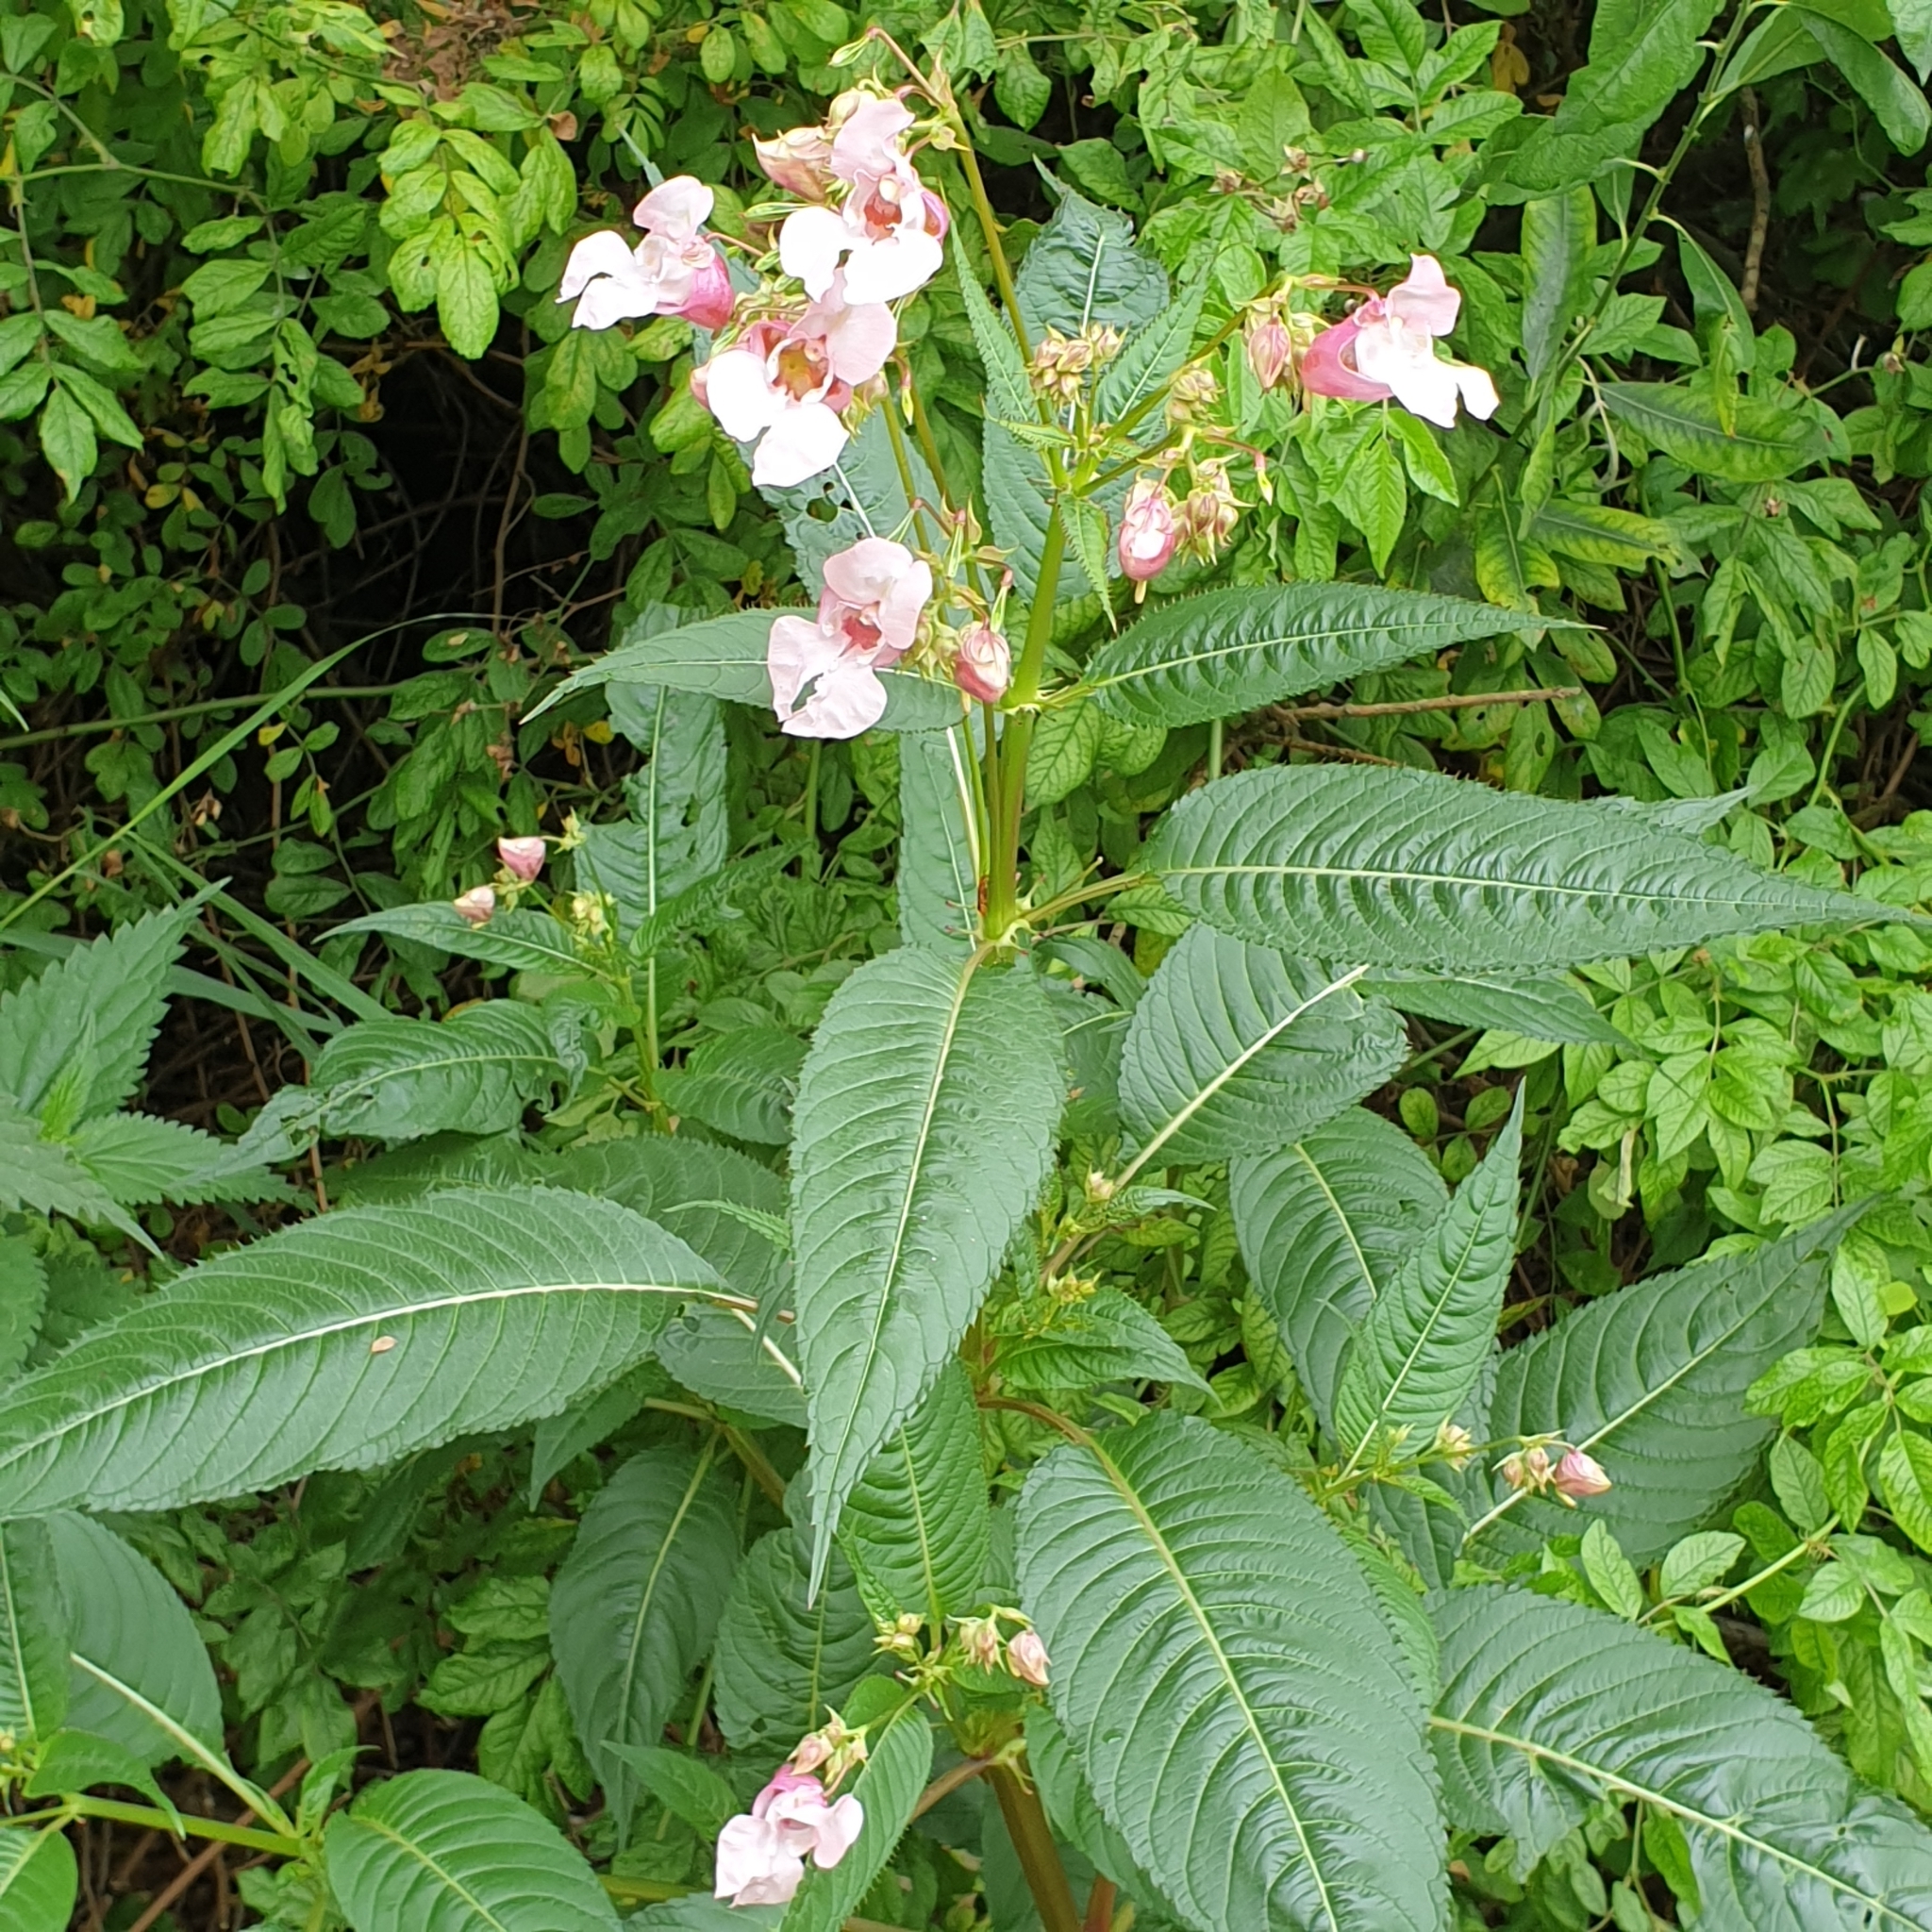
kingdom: Plantae
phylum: Tracheophyta
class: Magnoliopsida
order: Ericales
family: Balsaminaceae
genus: Impatiens
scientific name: Impatiens glandulifera
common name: Himalayan balsam
